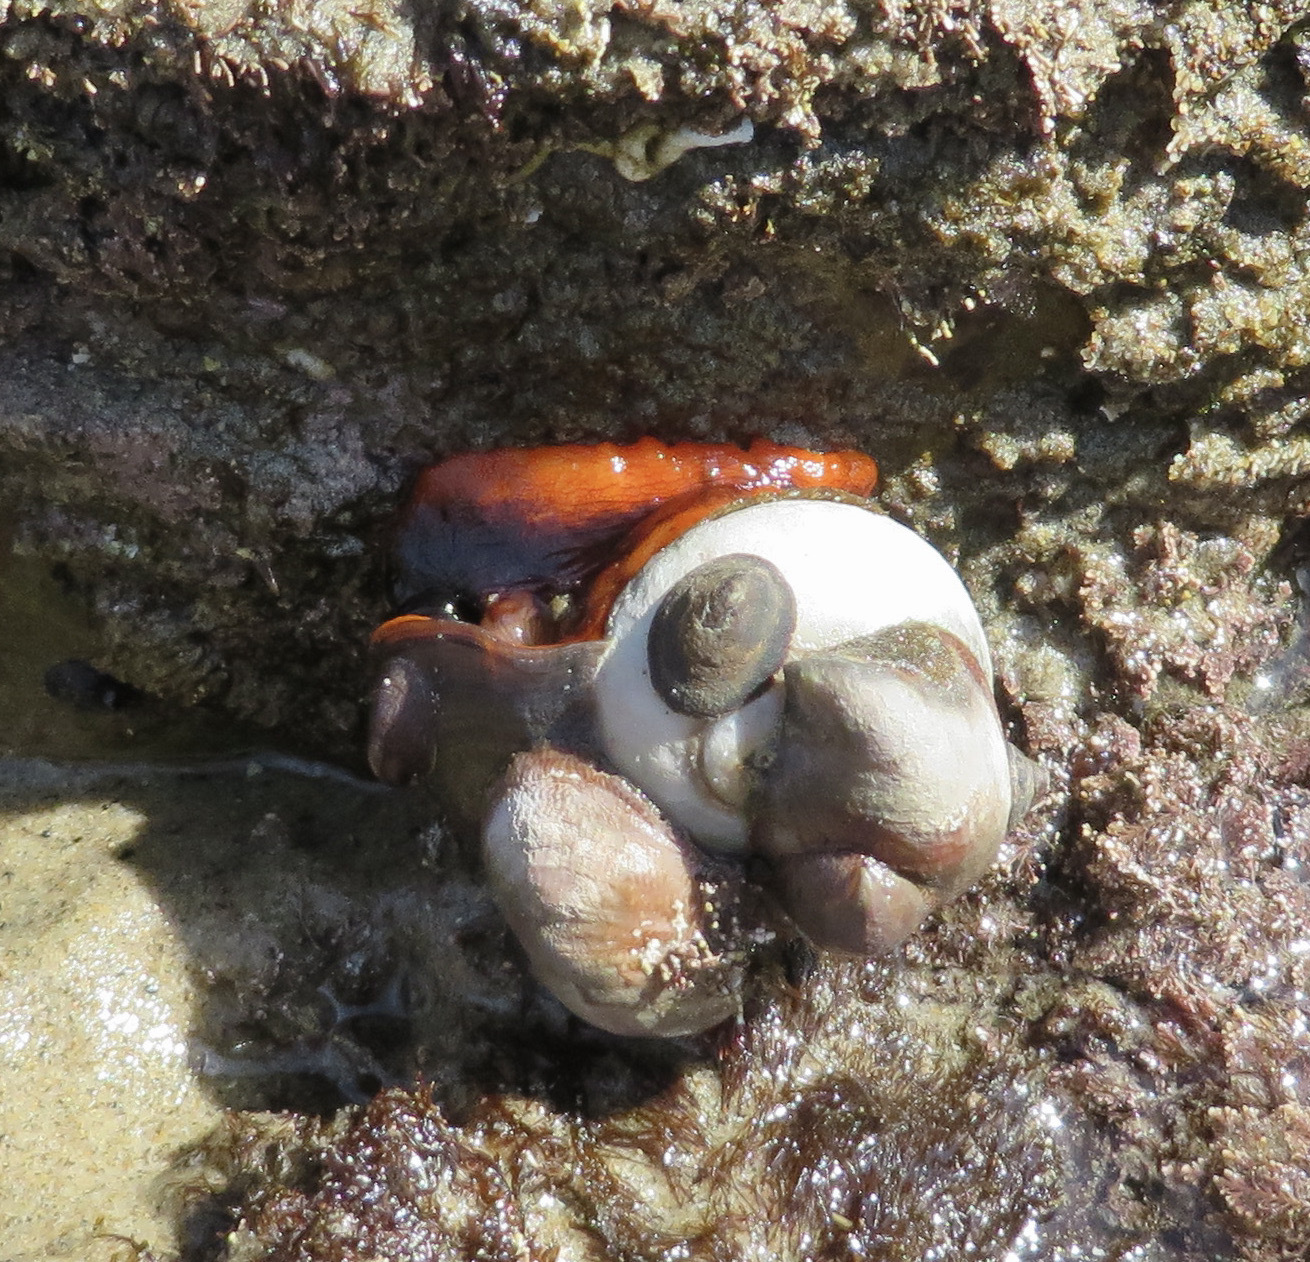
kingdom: Animalia
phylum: Mollusca
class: Gastropoda
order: Littorinimorpha
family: Calyptraeidae
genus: Crepidula
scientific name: Crepidula adunca
